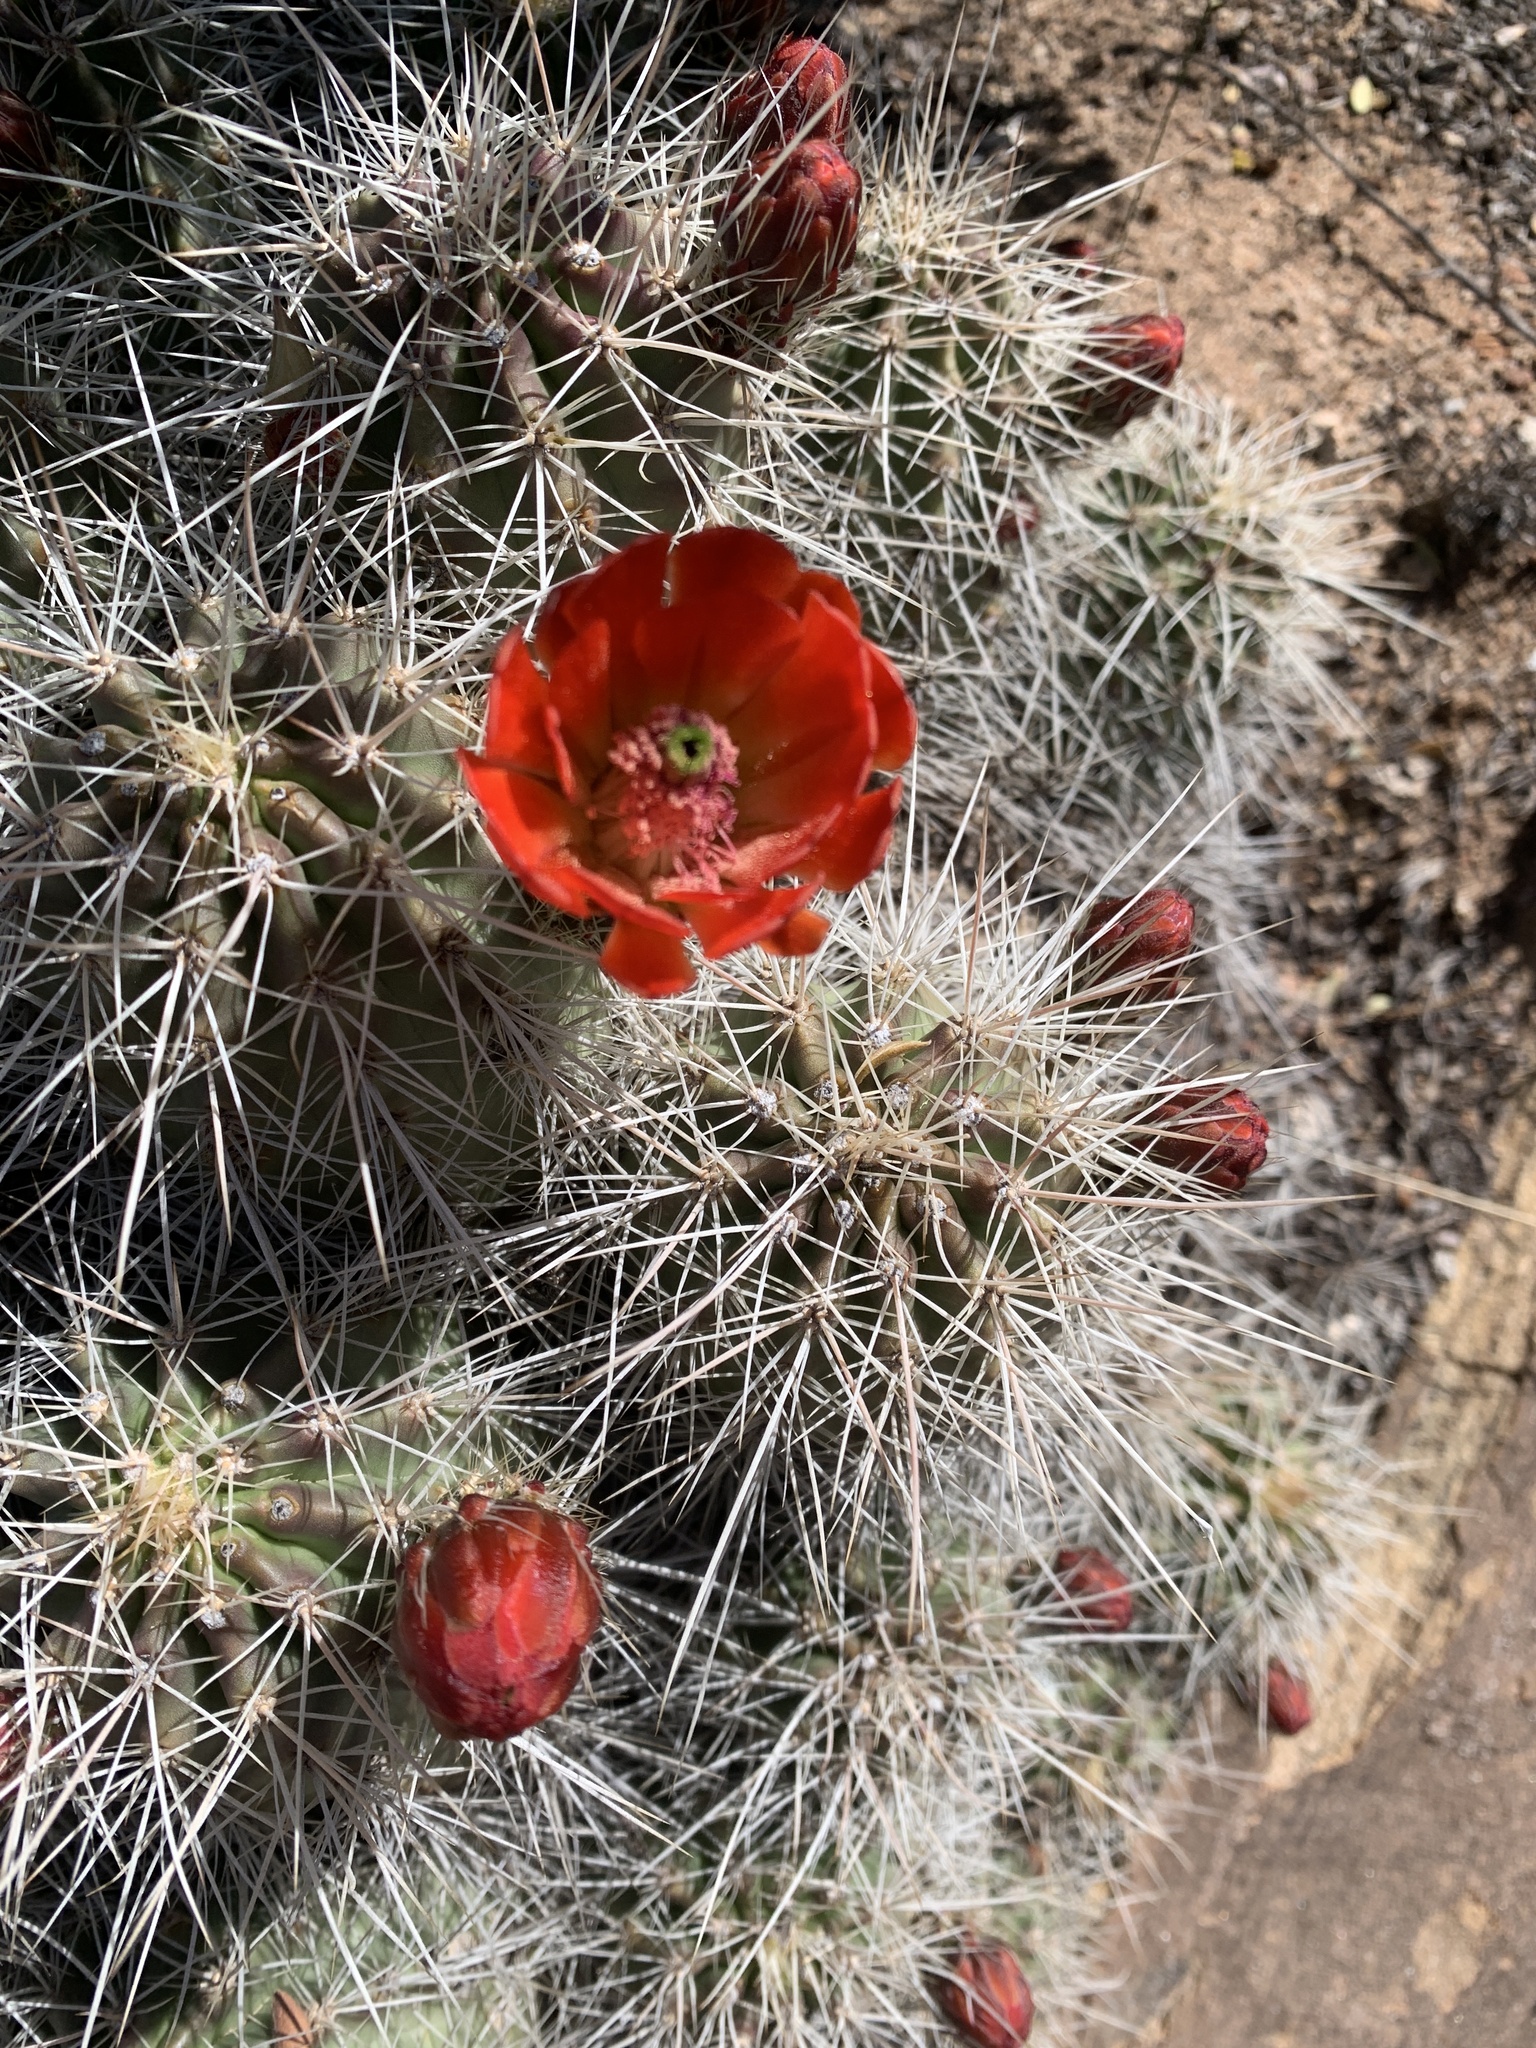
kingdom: Plantae
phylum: Tracheophyta
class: Magnoliopsida
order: Caryophyllales
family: Cactaceae
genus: Echinocereus
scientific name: Echinocereus coccineus
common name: Scarlet hedgehog cactus
